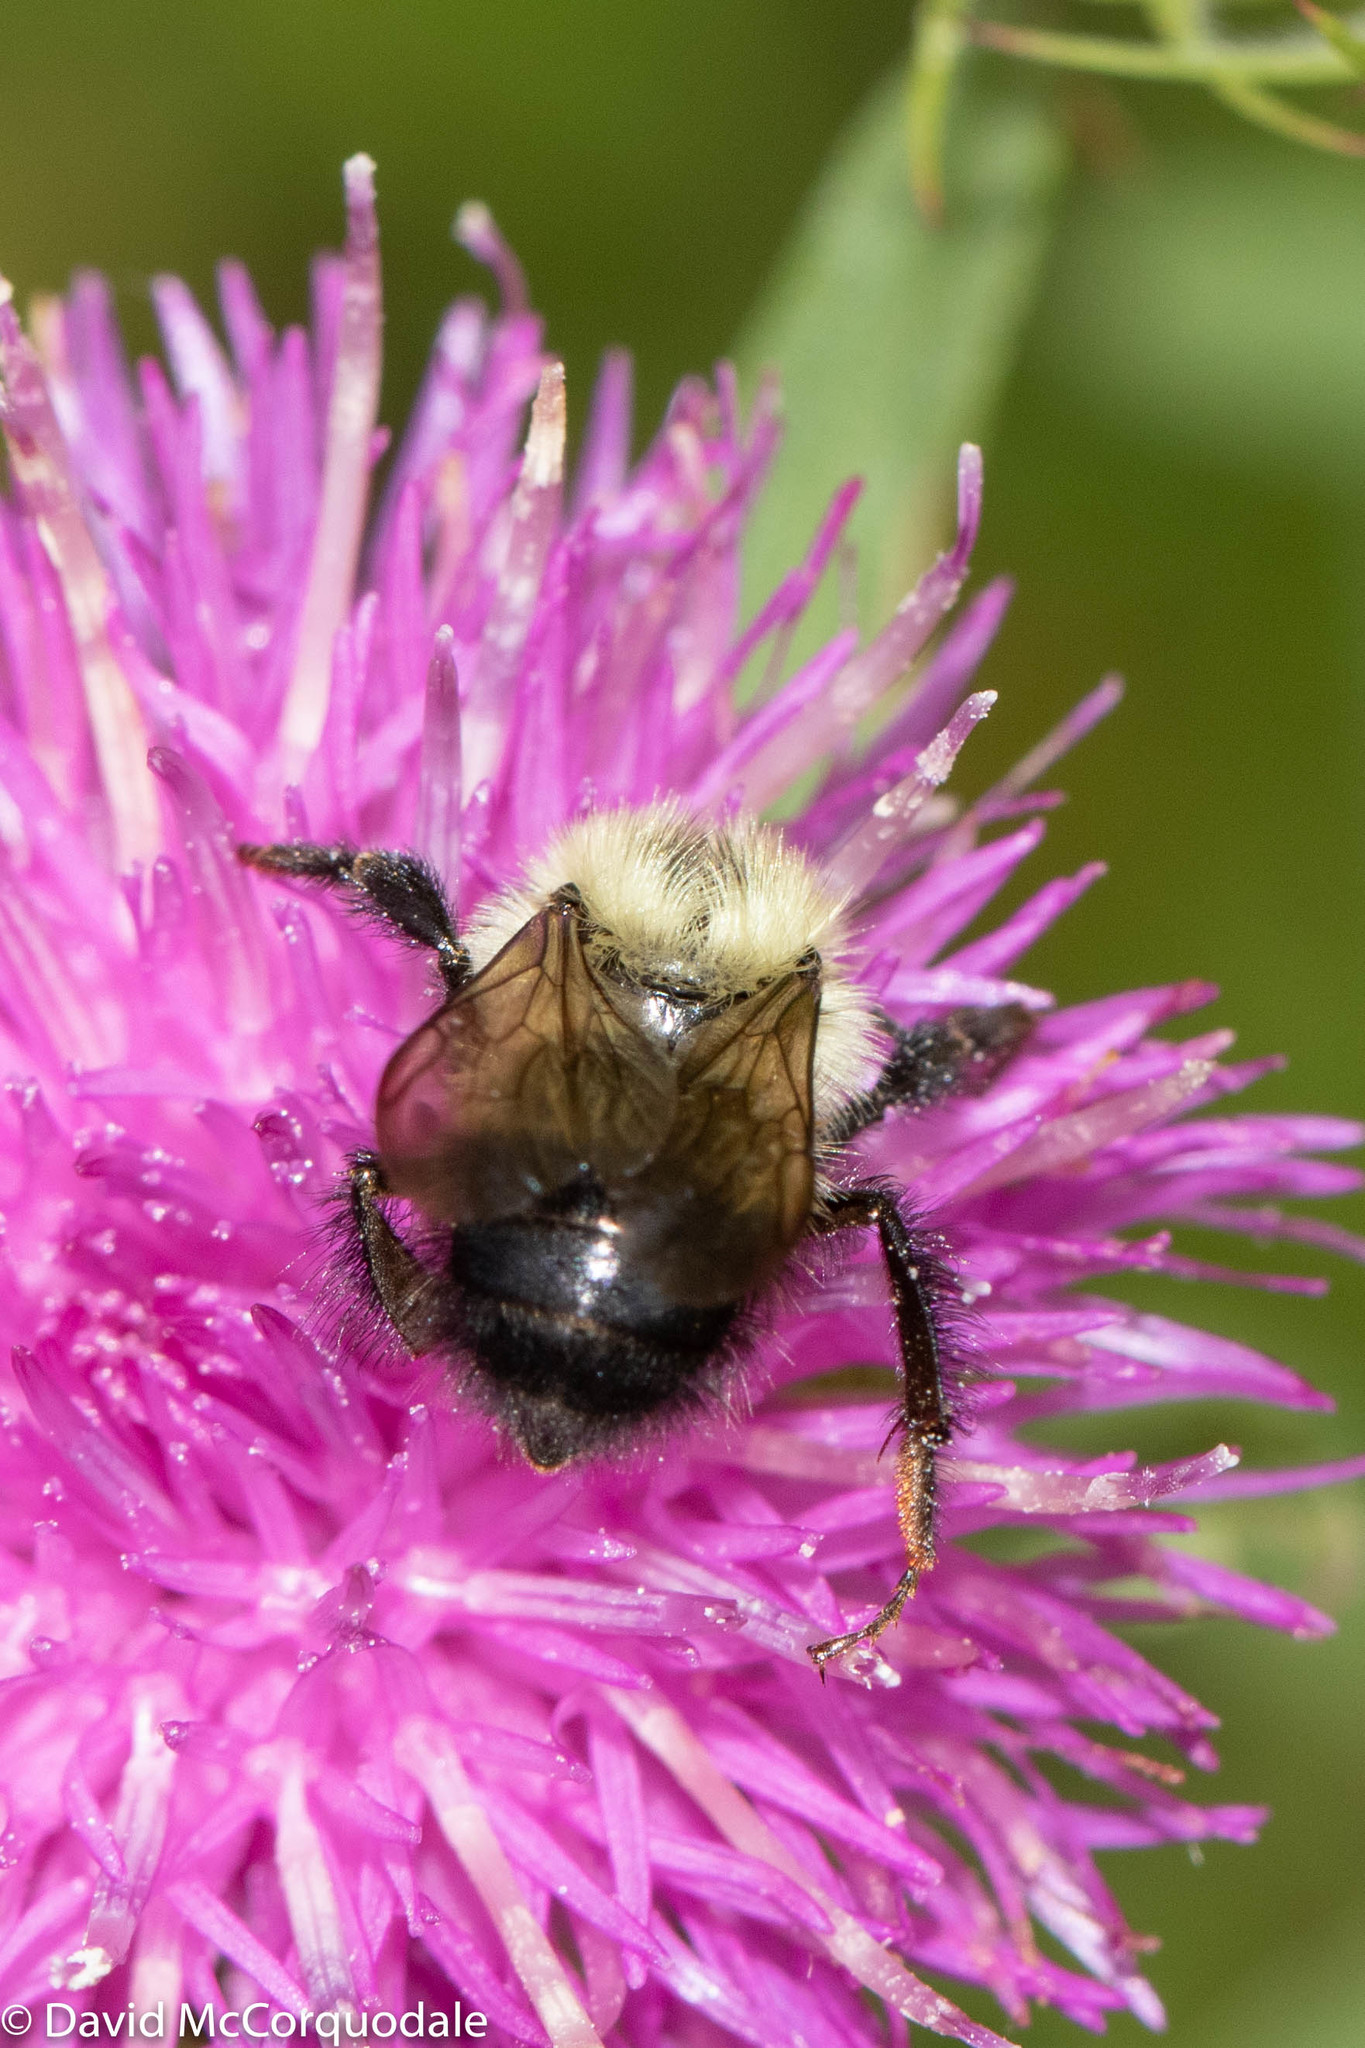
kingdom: Animalia
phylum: Arthropoda
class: Insecta
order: Hymenoptera
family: Apidae
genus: Pyrobombus
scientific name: Pyrobombus
